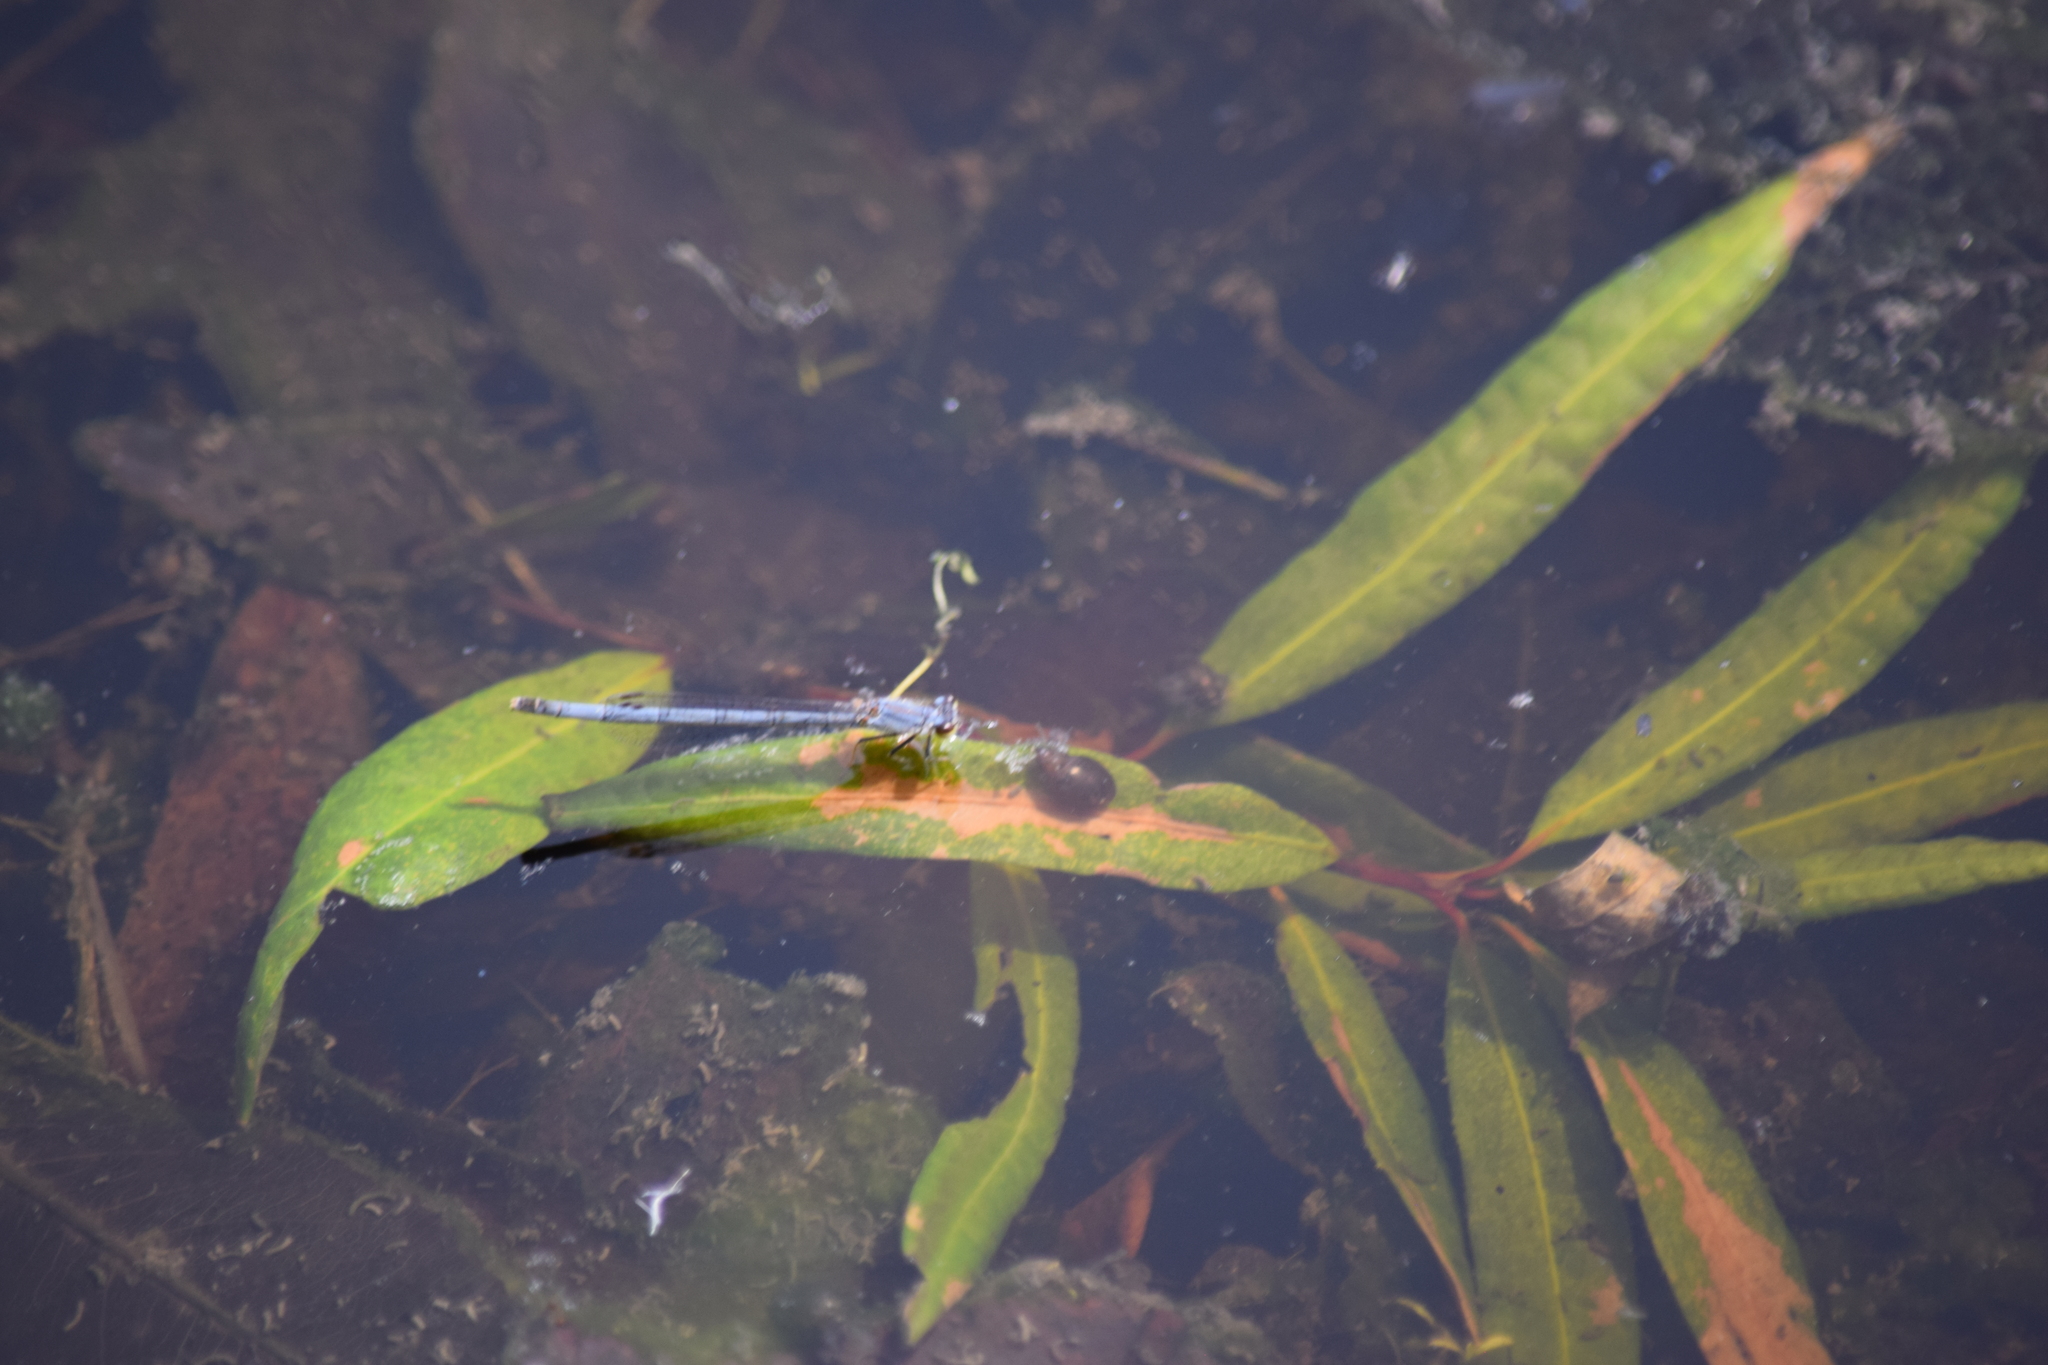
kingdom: Animalia
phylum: Arthropoda
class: Insecta
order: Odonata
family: Coenagrionidae
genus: Ischnura
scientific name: Ischnura posita
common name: Fragile forktail
